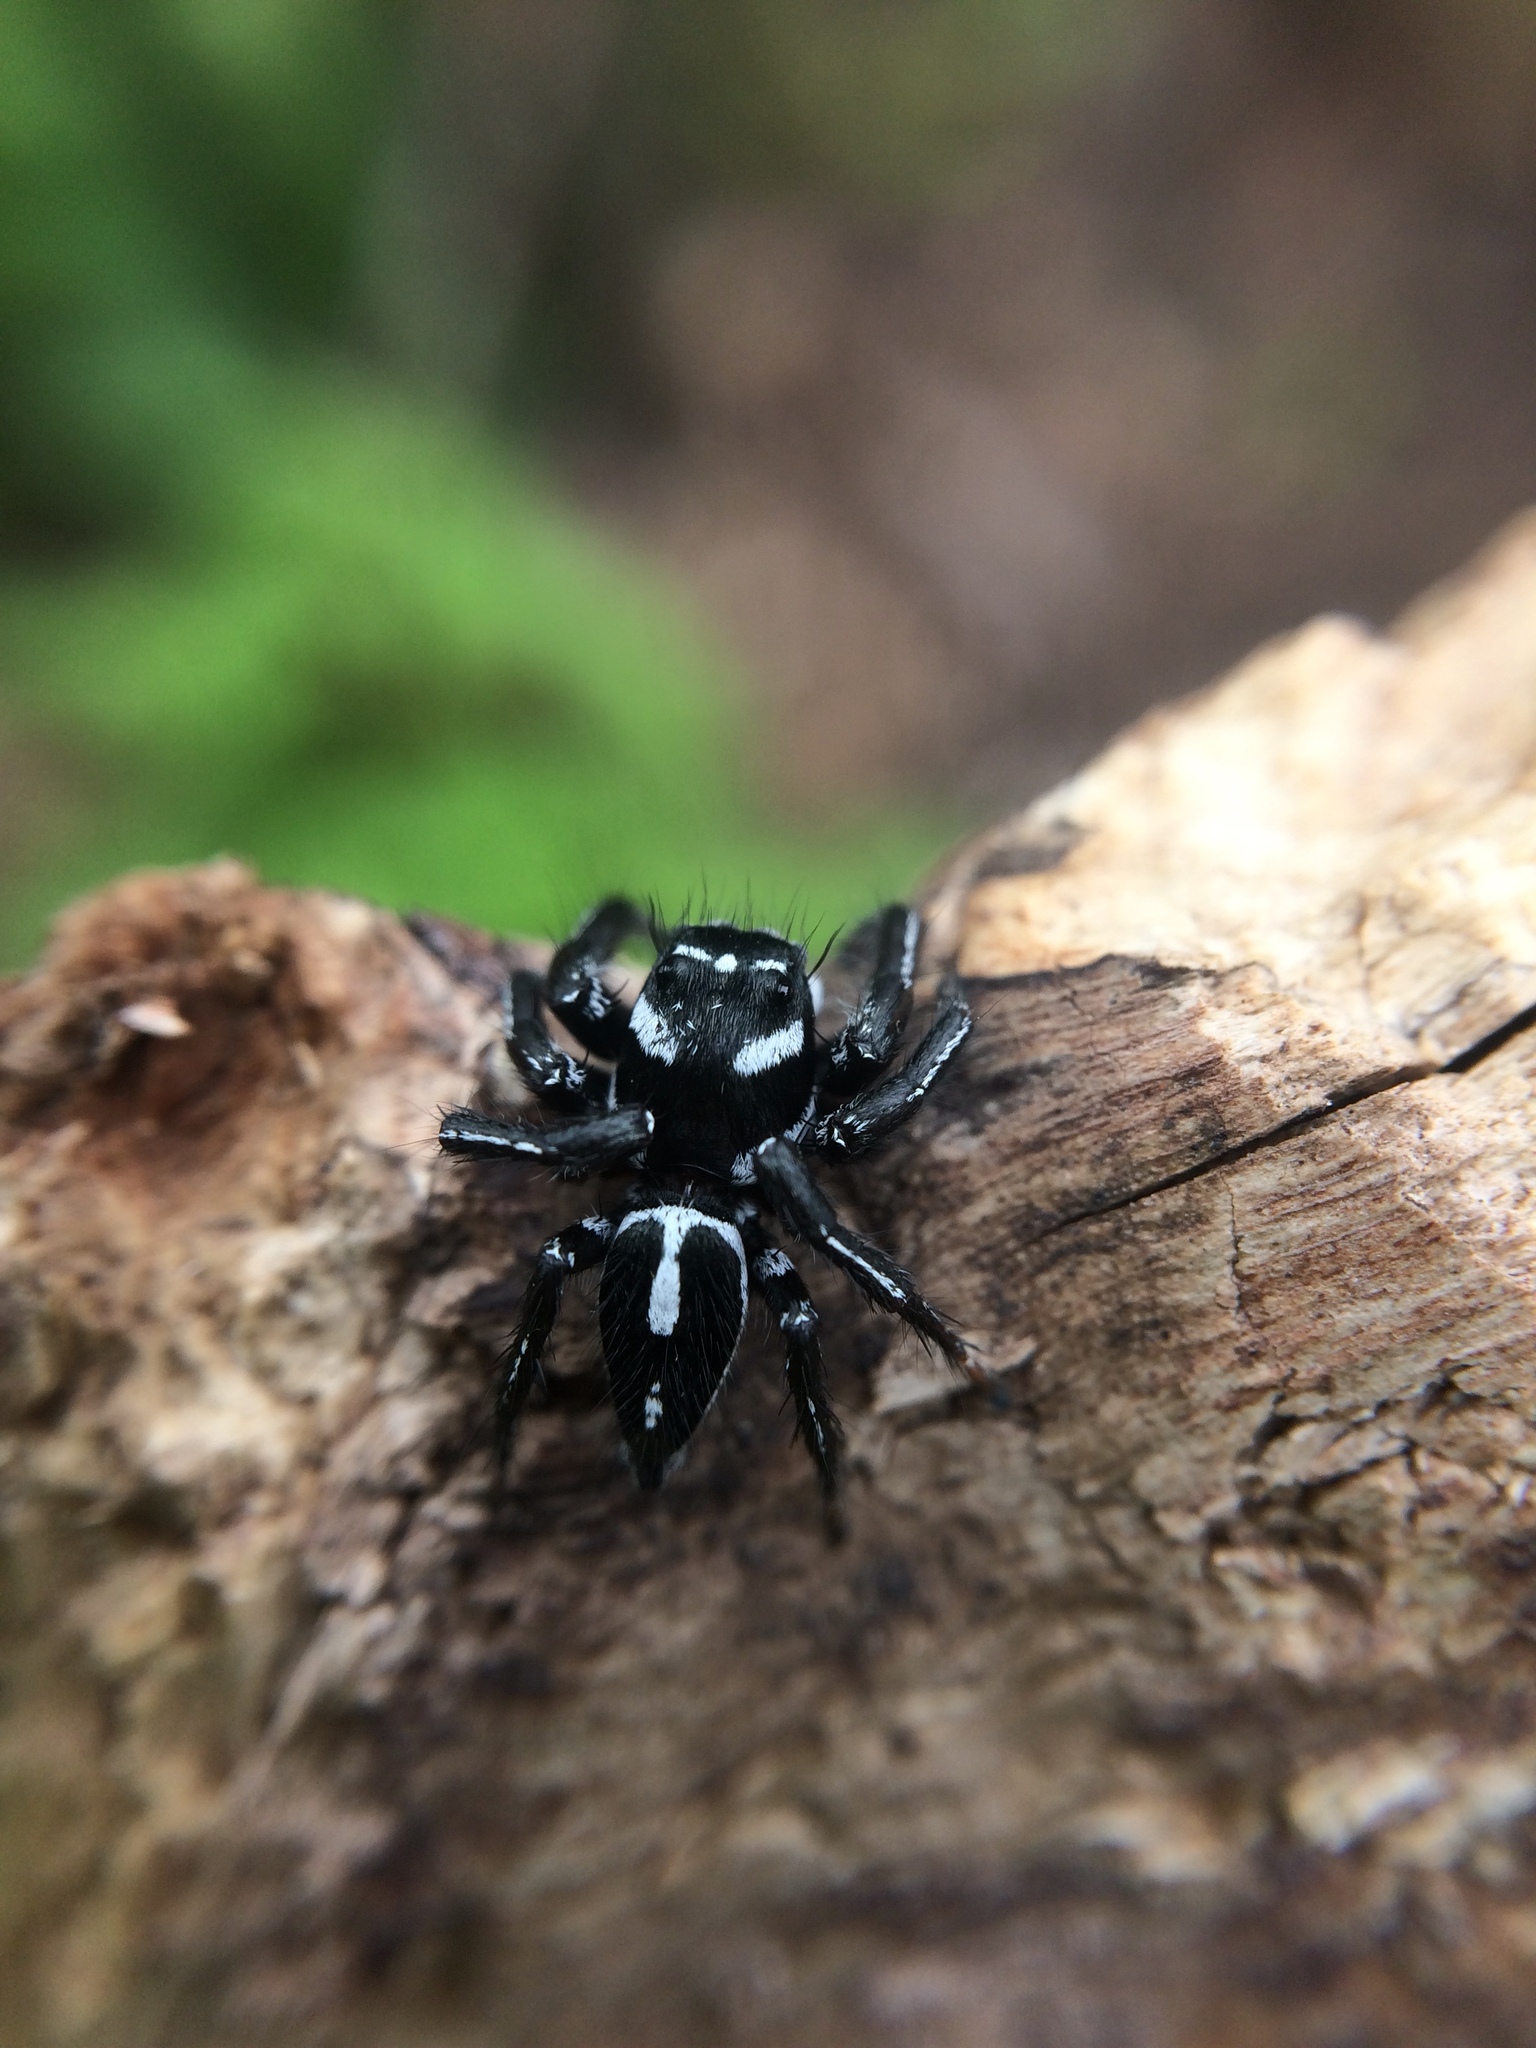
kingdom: Animalia
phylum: Arthropoda
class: Arachnida
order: Araneae
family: Salticidae
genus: Hyllus
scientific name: Hyllus argyrotoxus
